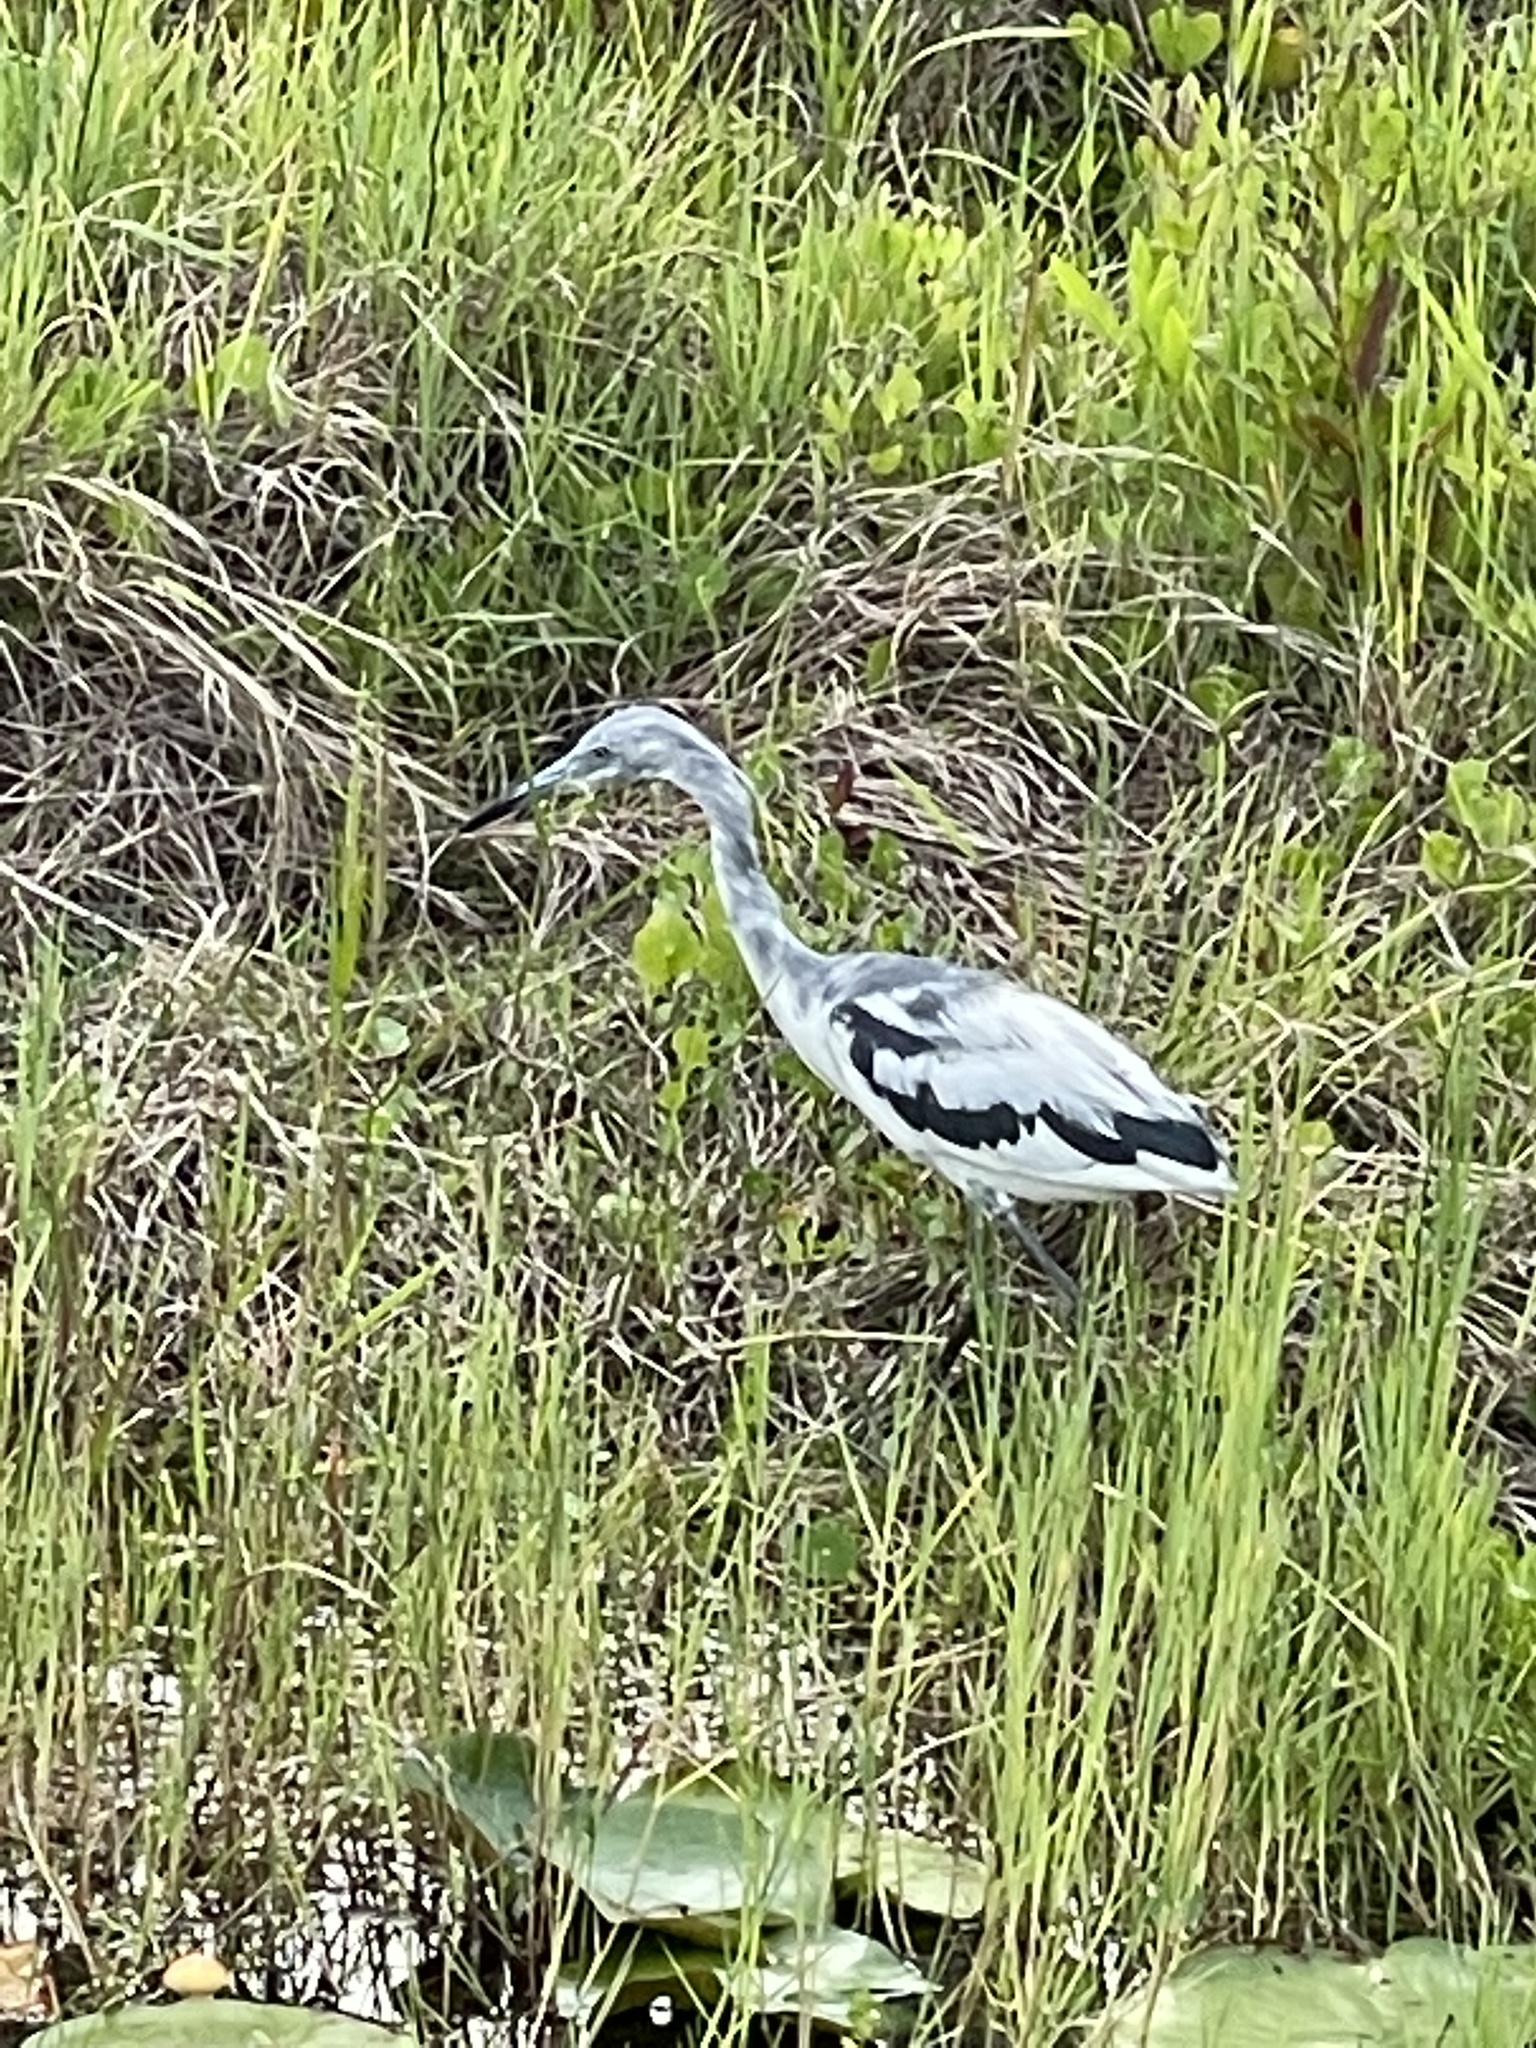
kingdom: Animalia
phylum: Chordata
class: Aves
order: Pelecaniformes
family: Ardeidae
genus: Egretta
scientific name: Egretta caerulea
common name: Little blue heron
